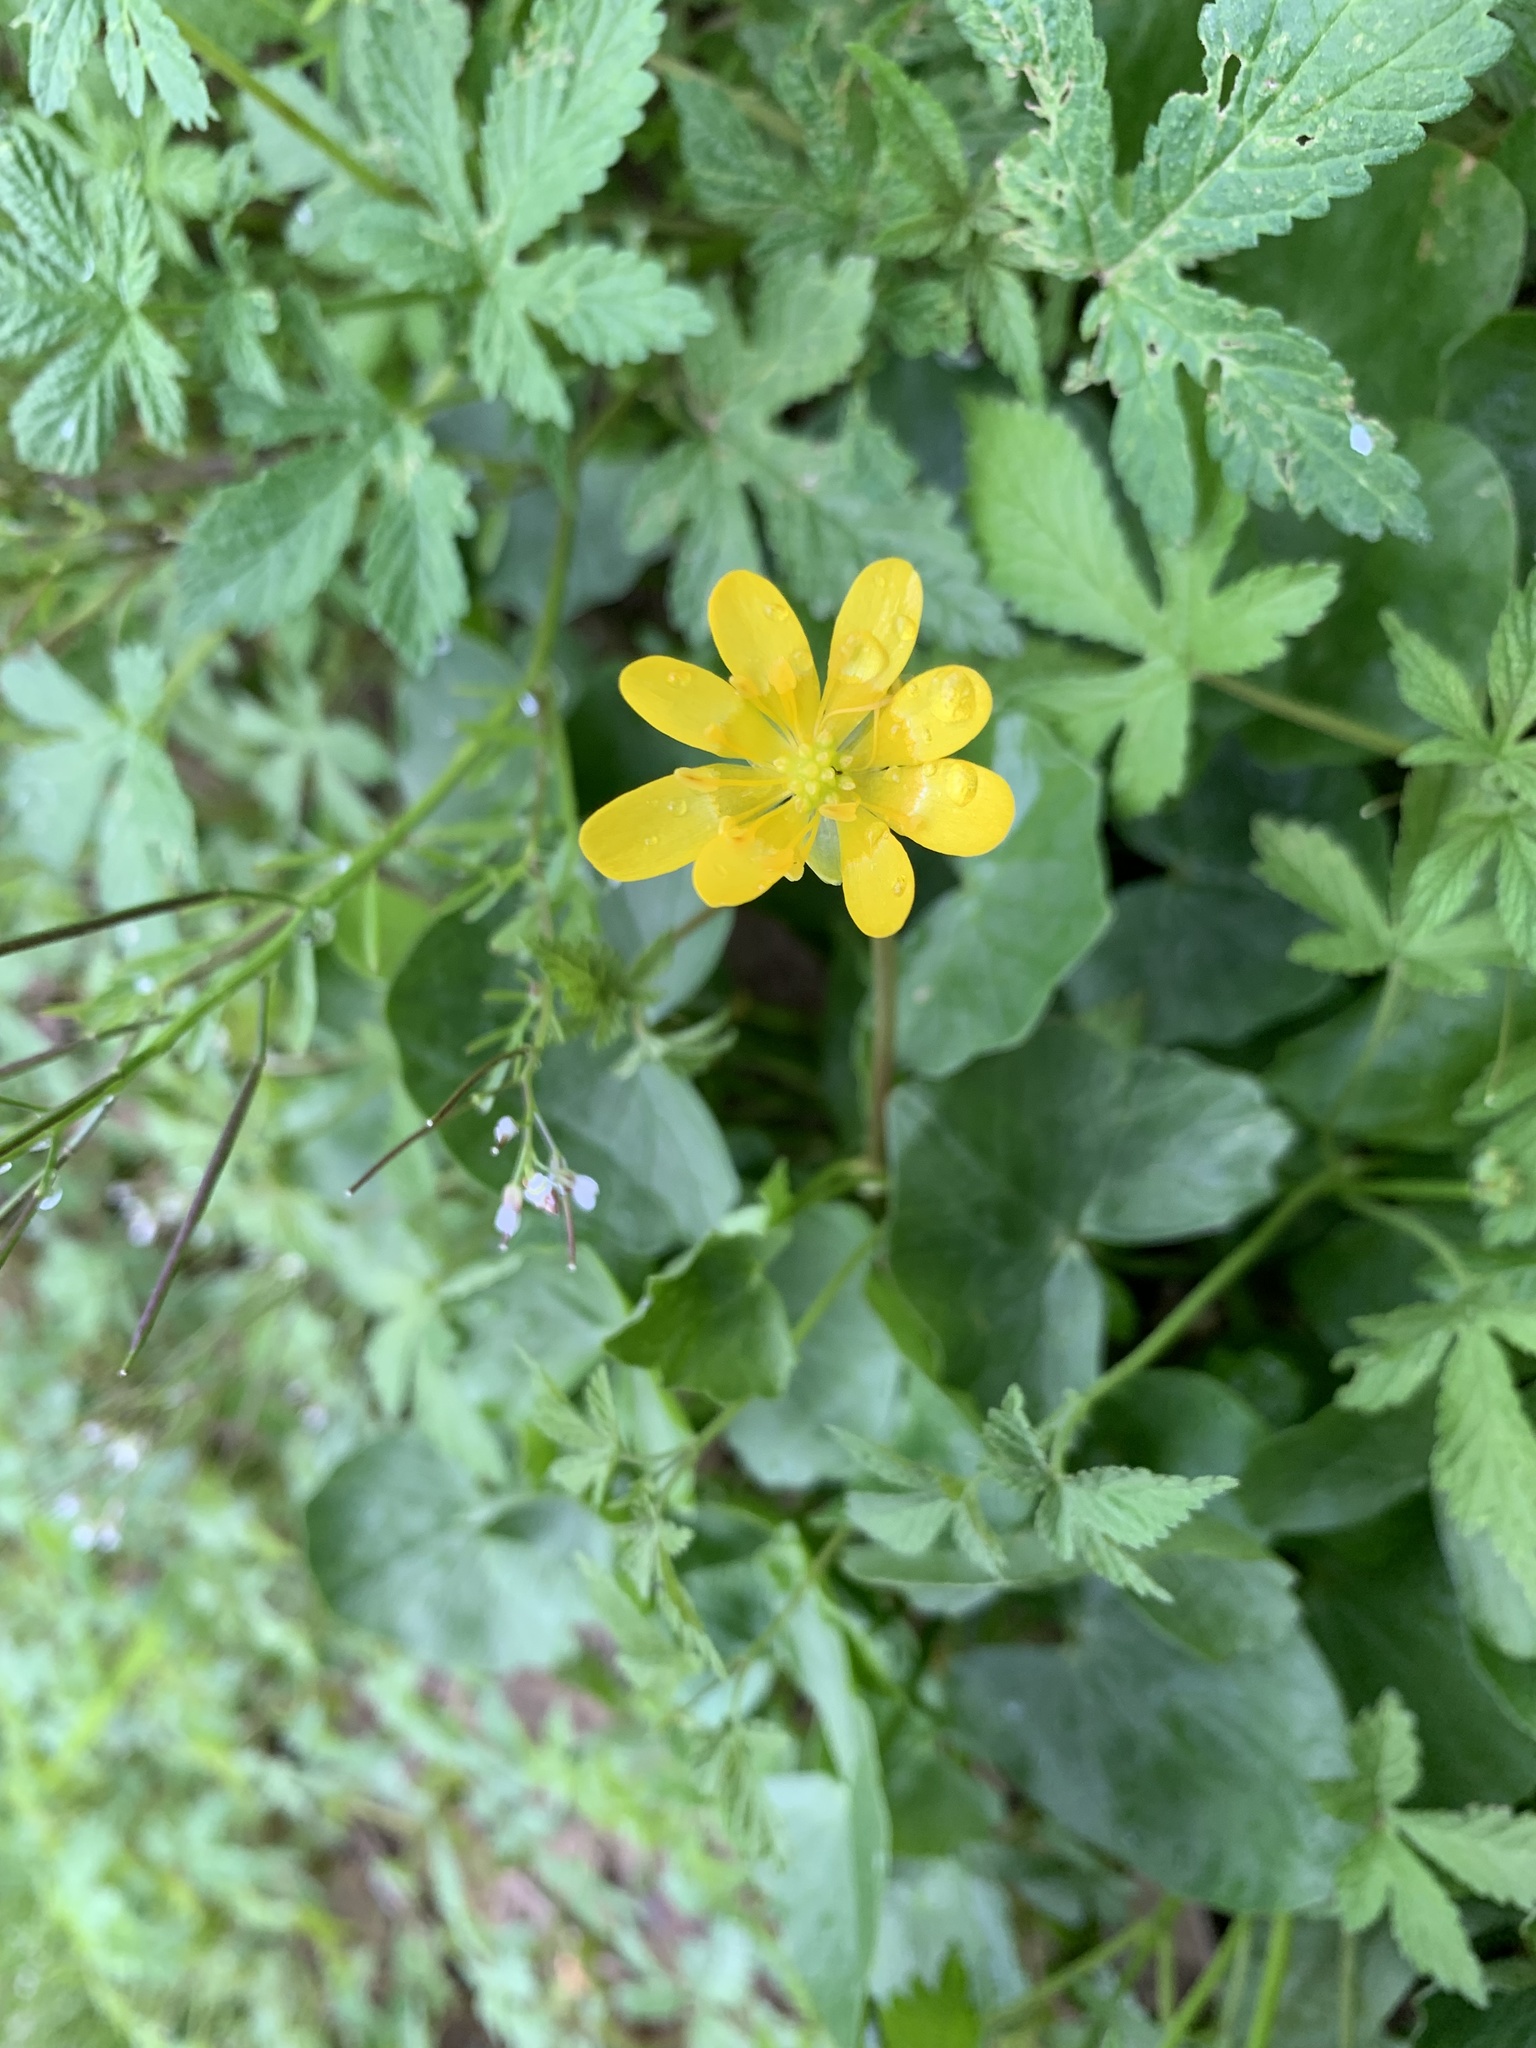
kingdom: Plantae
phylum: Tracheophyta
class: Magnoliopsida
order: Ranunculales
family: Ranunculaceae
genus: Ficaria
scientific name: Ficaria verna
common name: Lesser celandine
